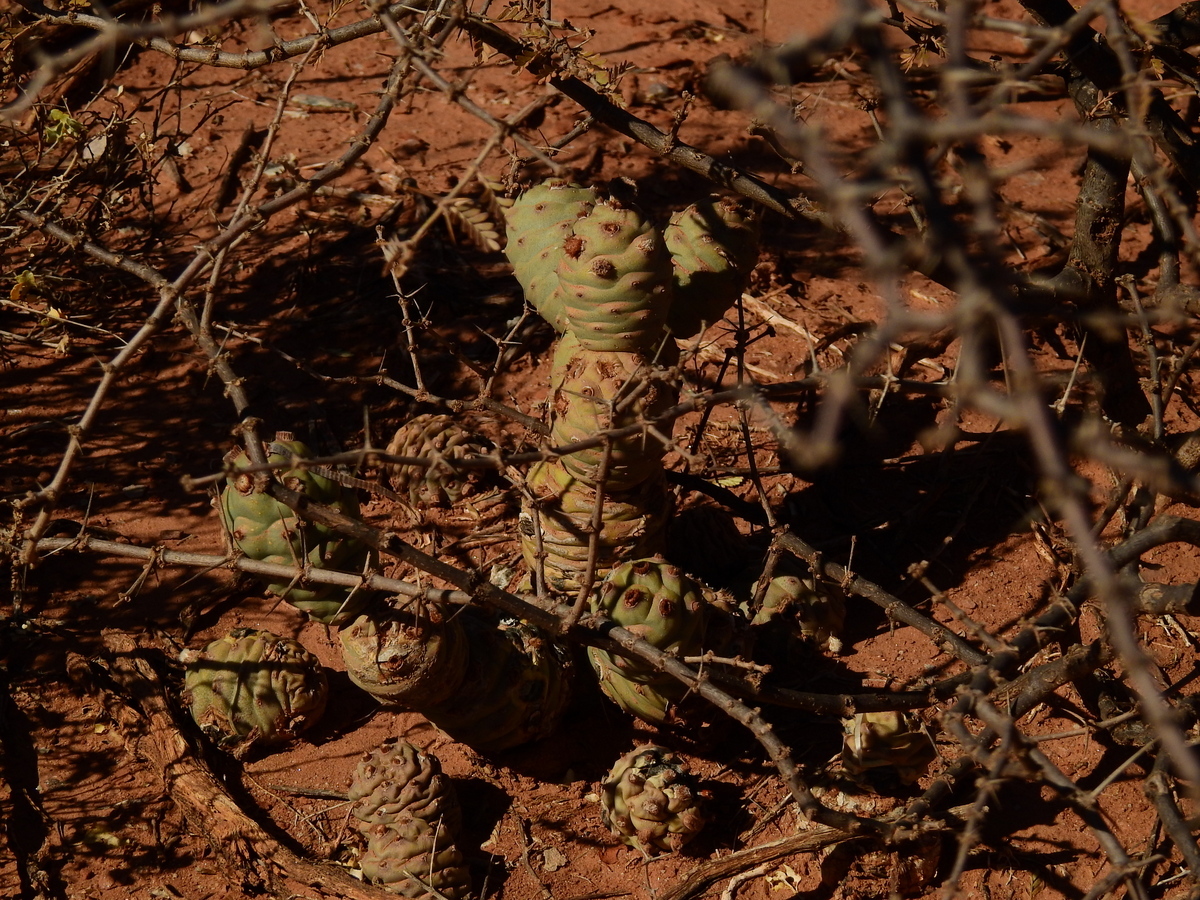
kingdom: Plantae
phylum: Tracheophyta
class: Magnoliopsida
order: Caryophyllales
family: Cactaceae
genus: Tephrocactus
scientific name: Tephrocactus articulatus
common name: Paper cactus
